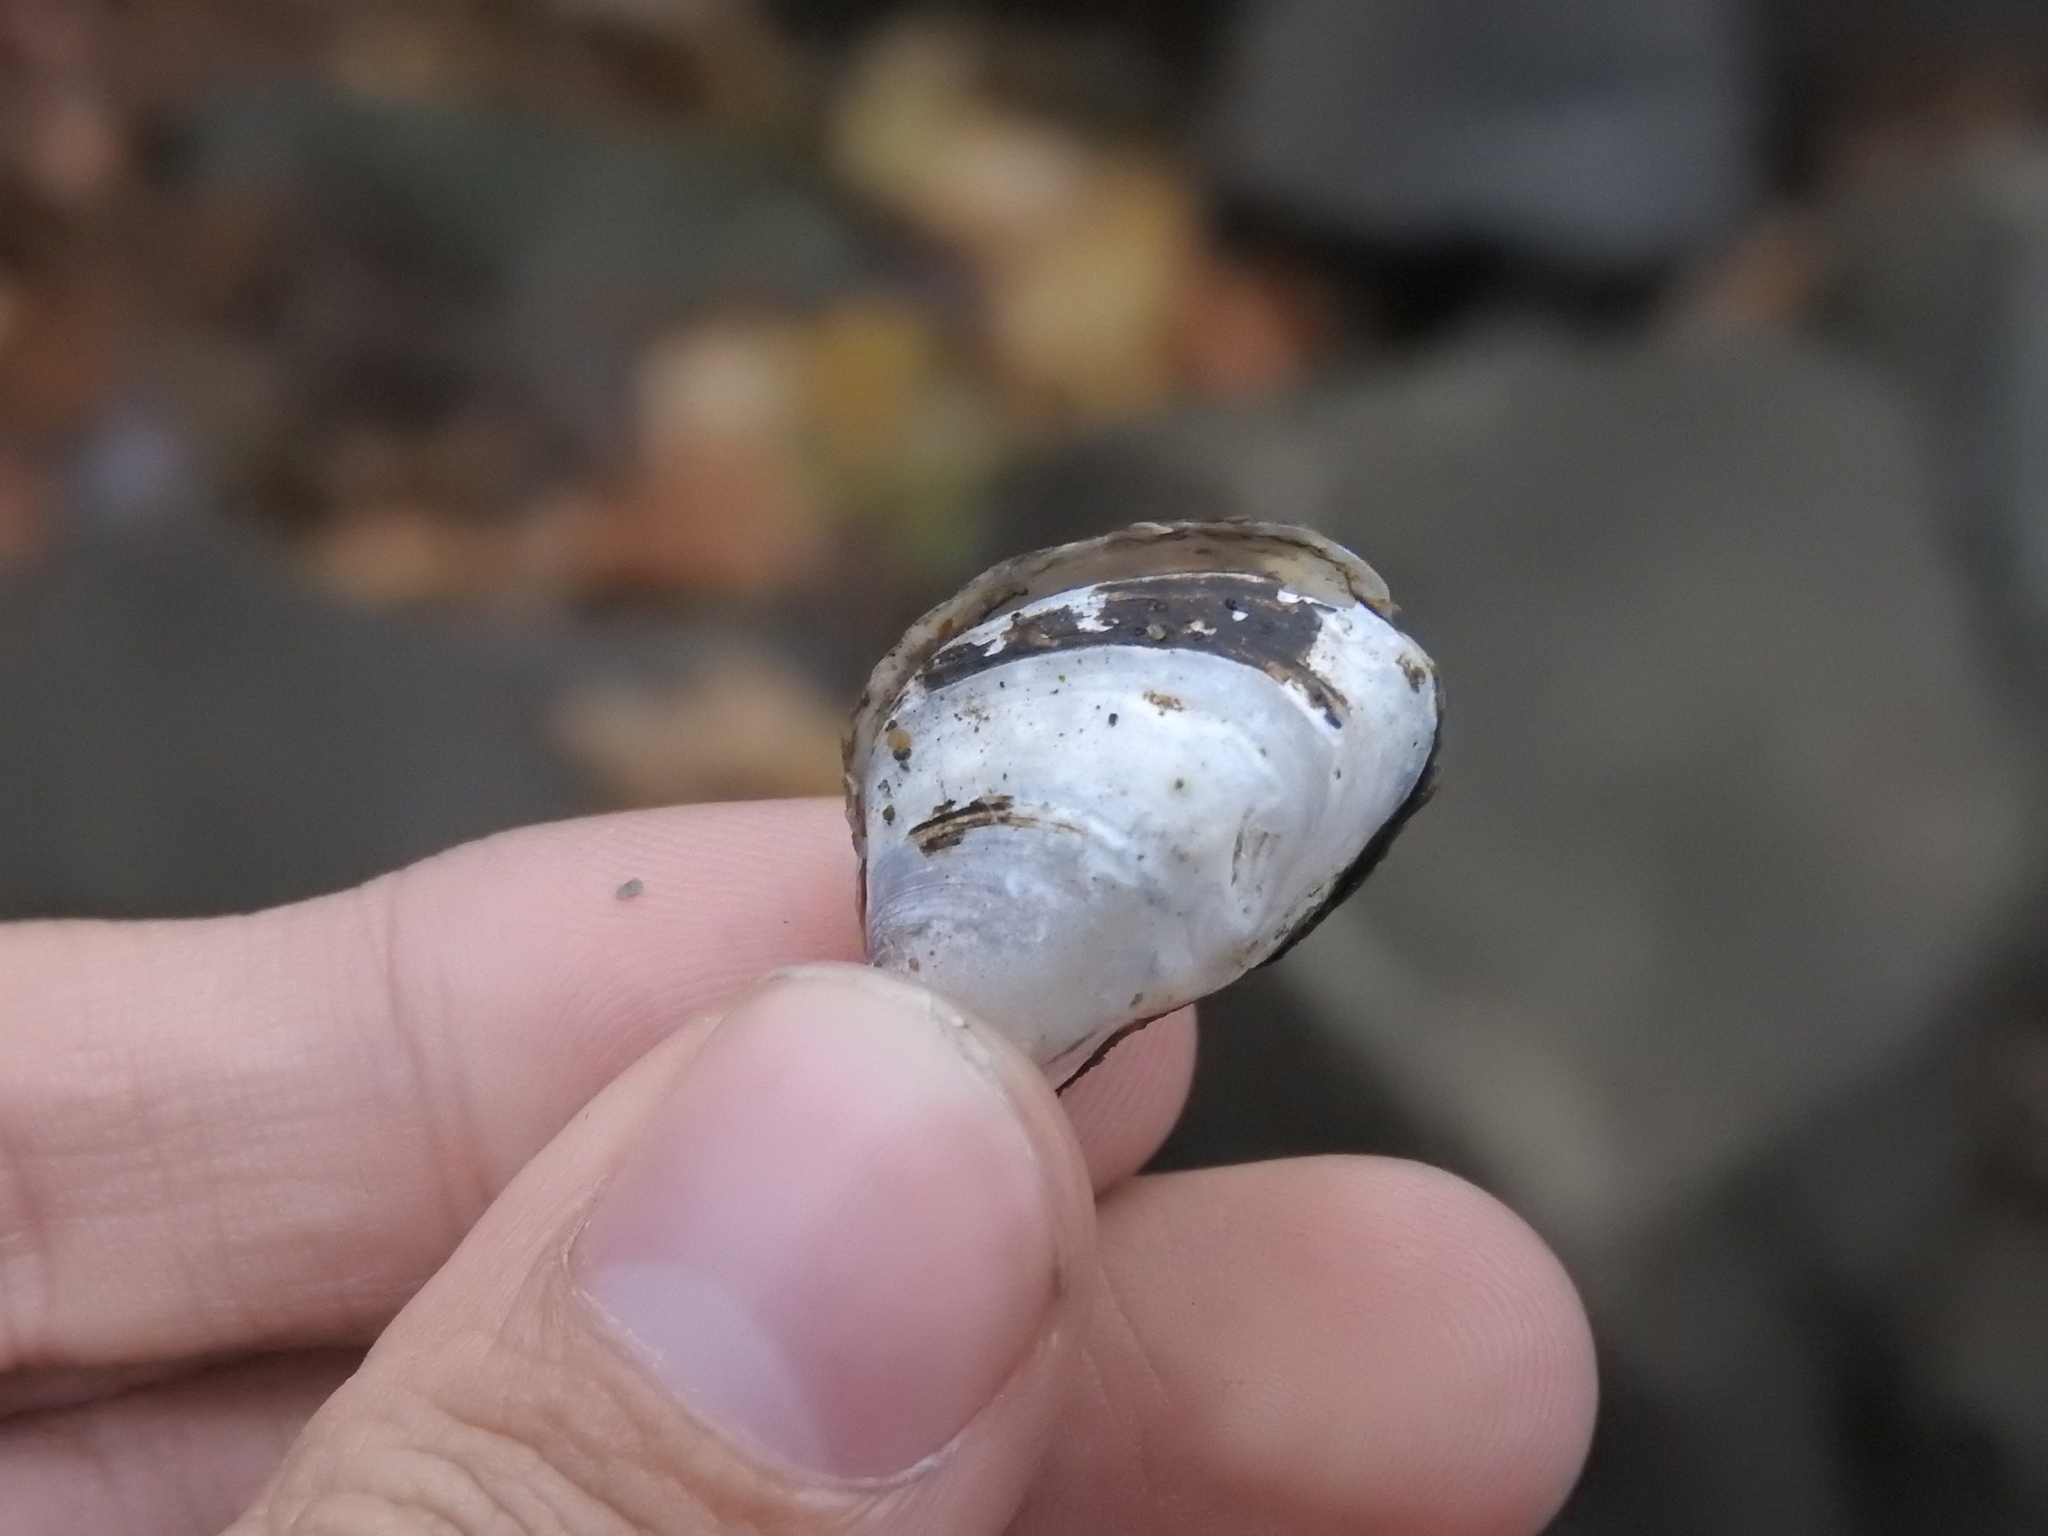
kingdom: Animalia
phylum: Mollusca
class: Bivalvia
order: Myida
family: Dreissenidae
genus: Dreissena
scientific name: Dreissena bugensis
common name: Quagga mussel
